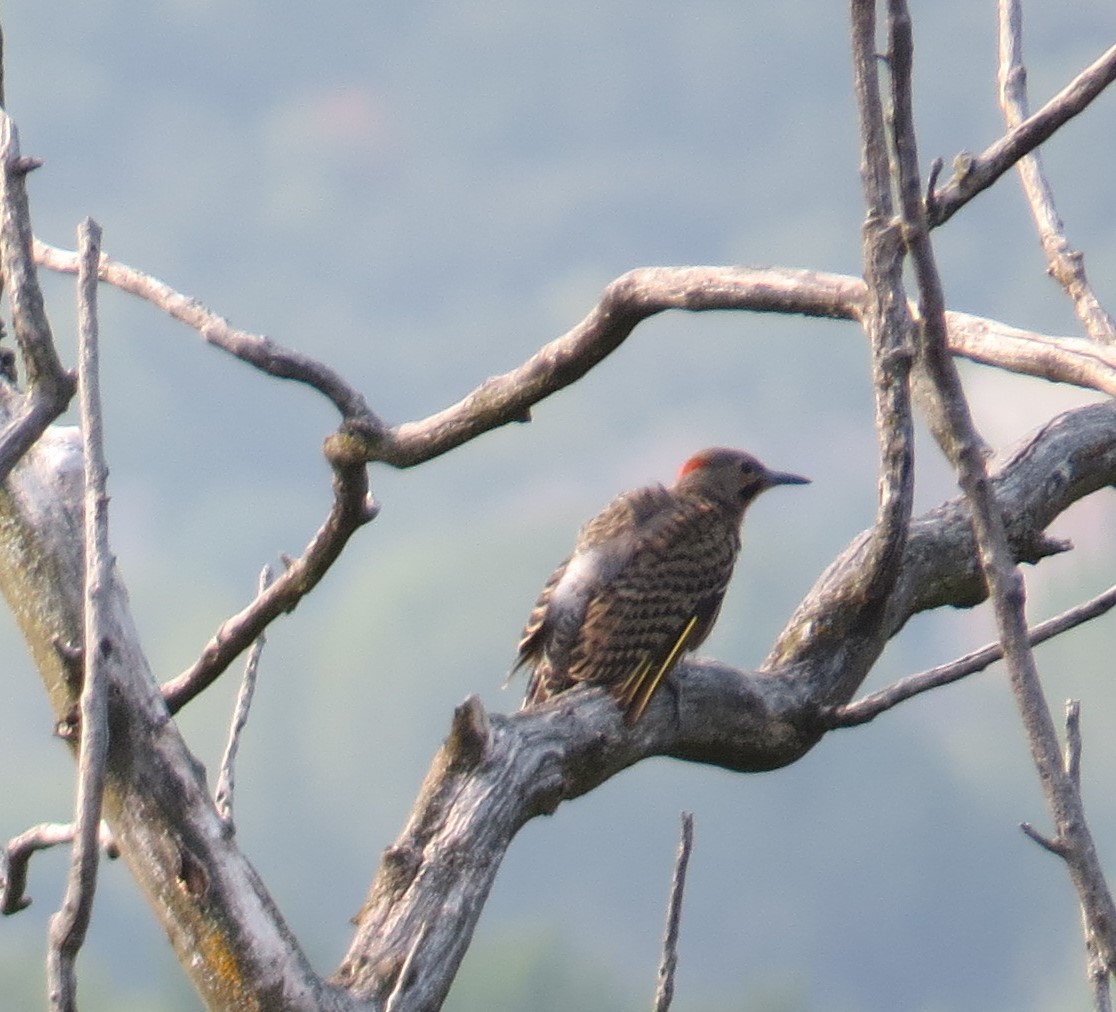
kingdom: Animalia
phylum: Chordata
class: Aves
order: Piciformes
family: Picidae
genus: Colaptes
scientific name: Colaptes auratus
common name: Northern flicker
